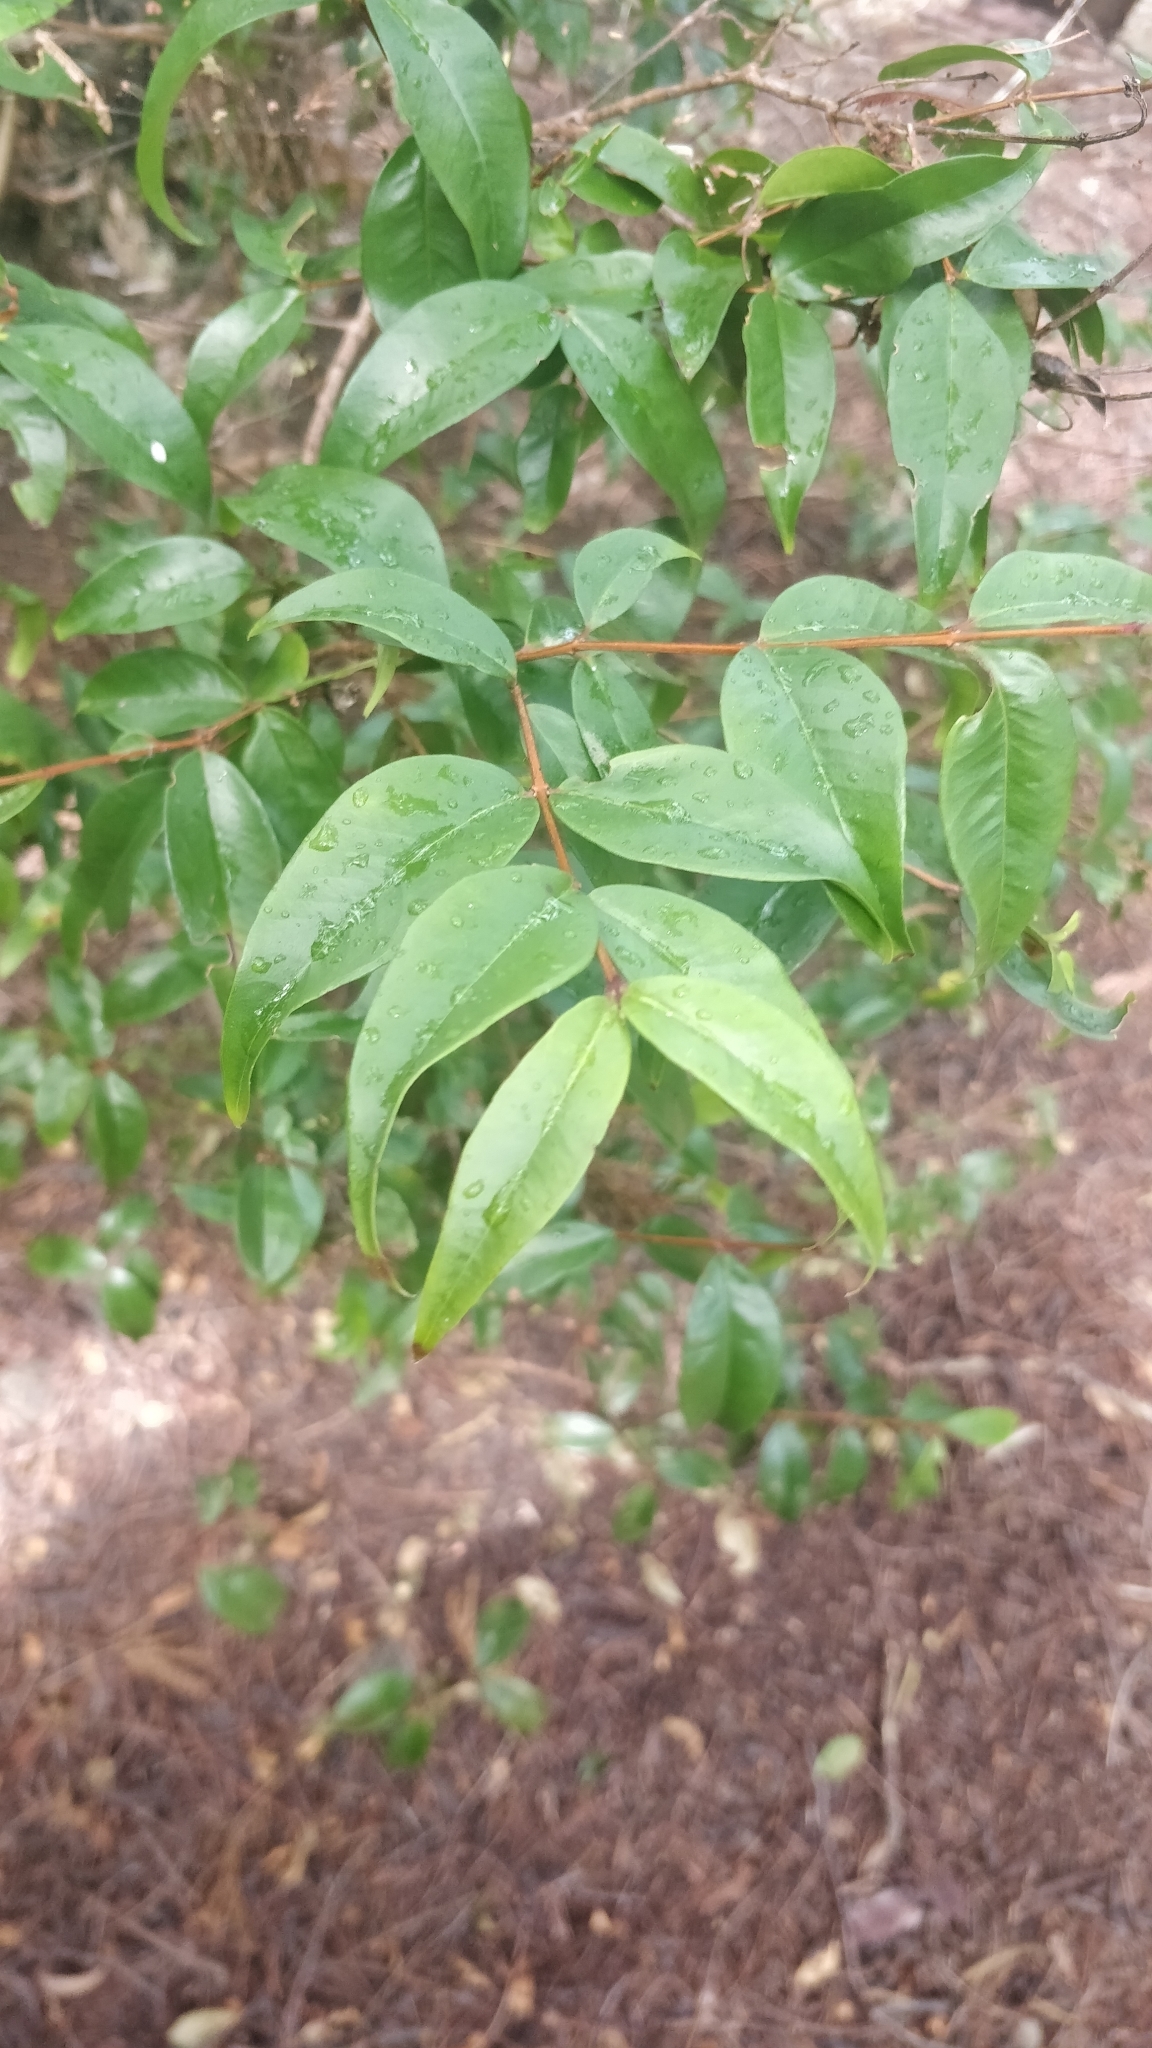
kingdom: Plantae
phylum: Tracheophyta
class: Magnoliopsida
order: Myrtales
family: Myrtaceae
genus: Myrtus
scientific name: Myrtus communis
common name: Myrtle
